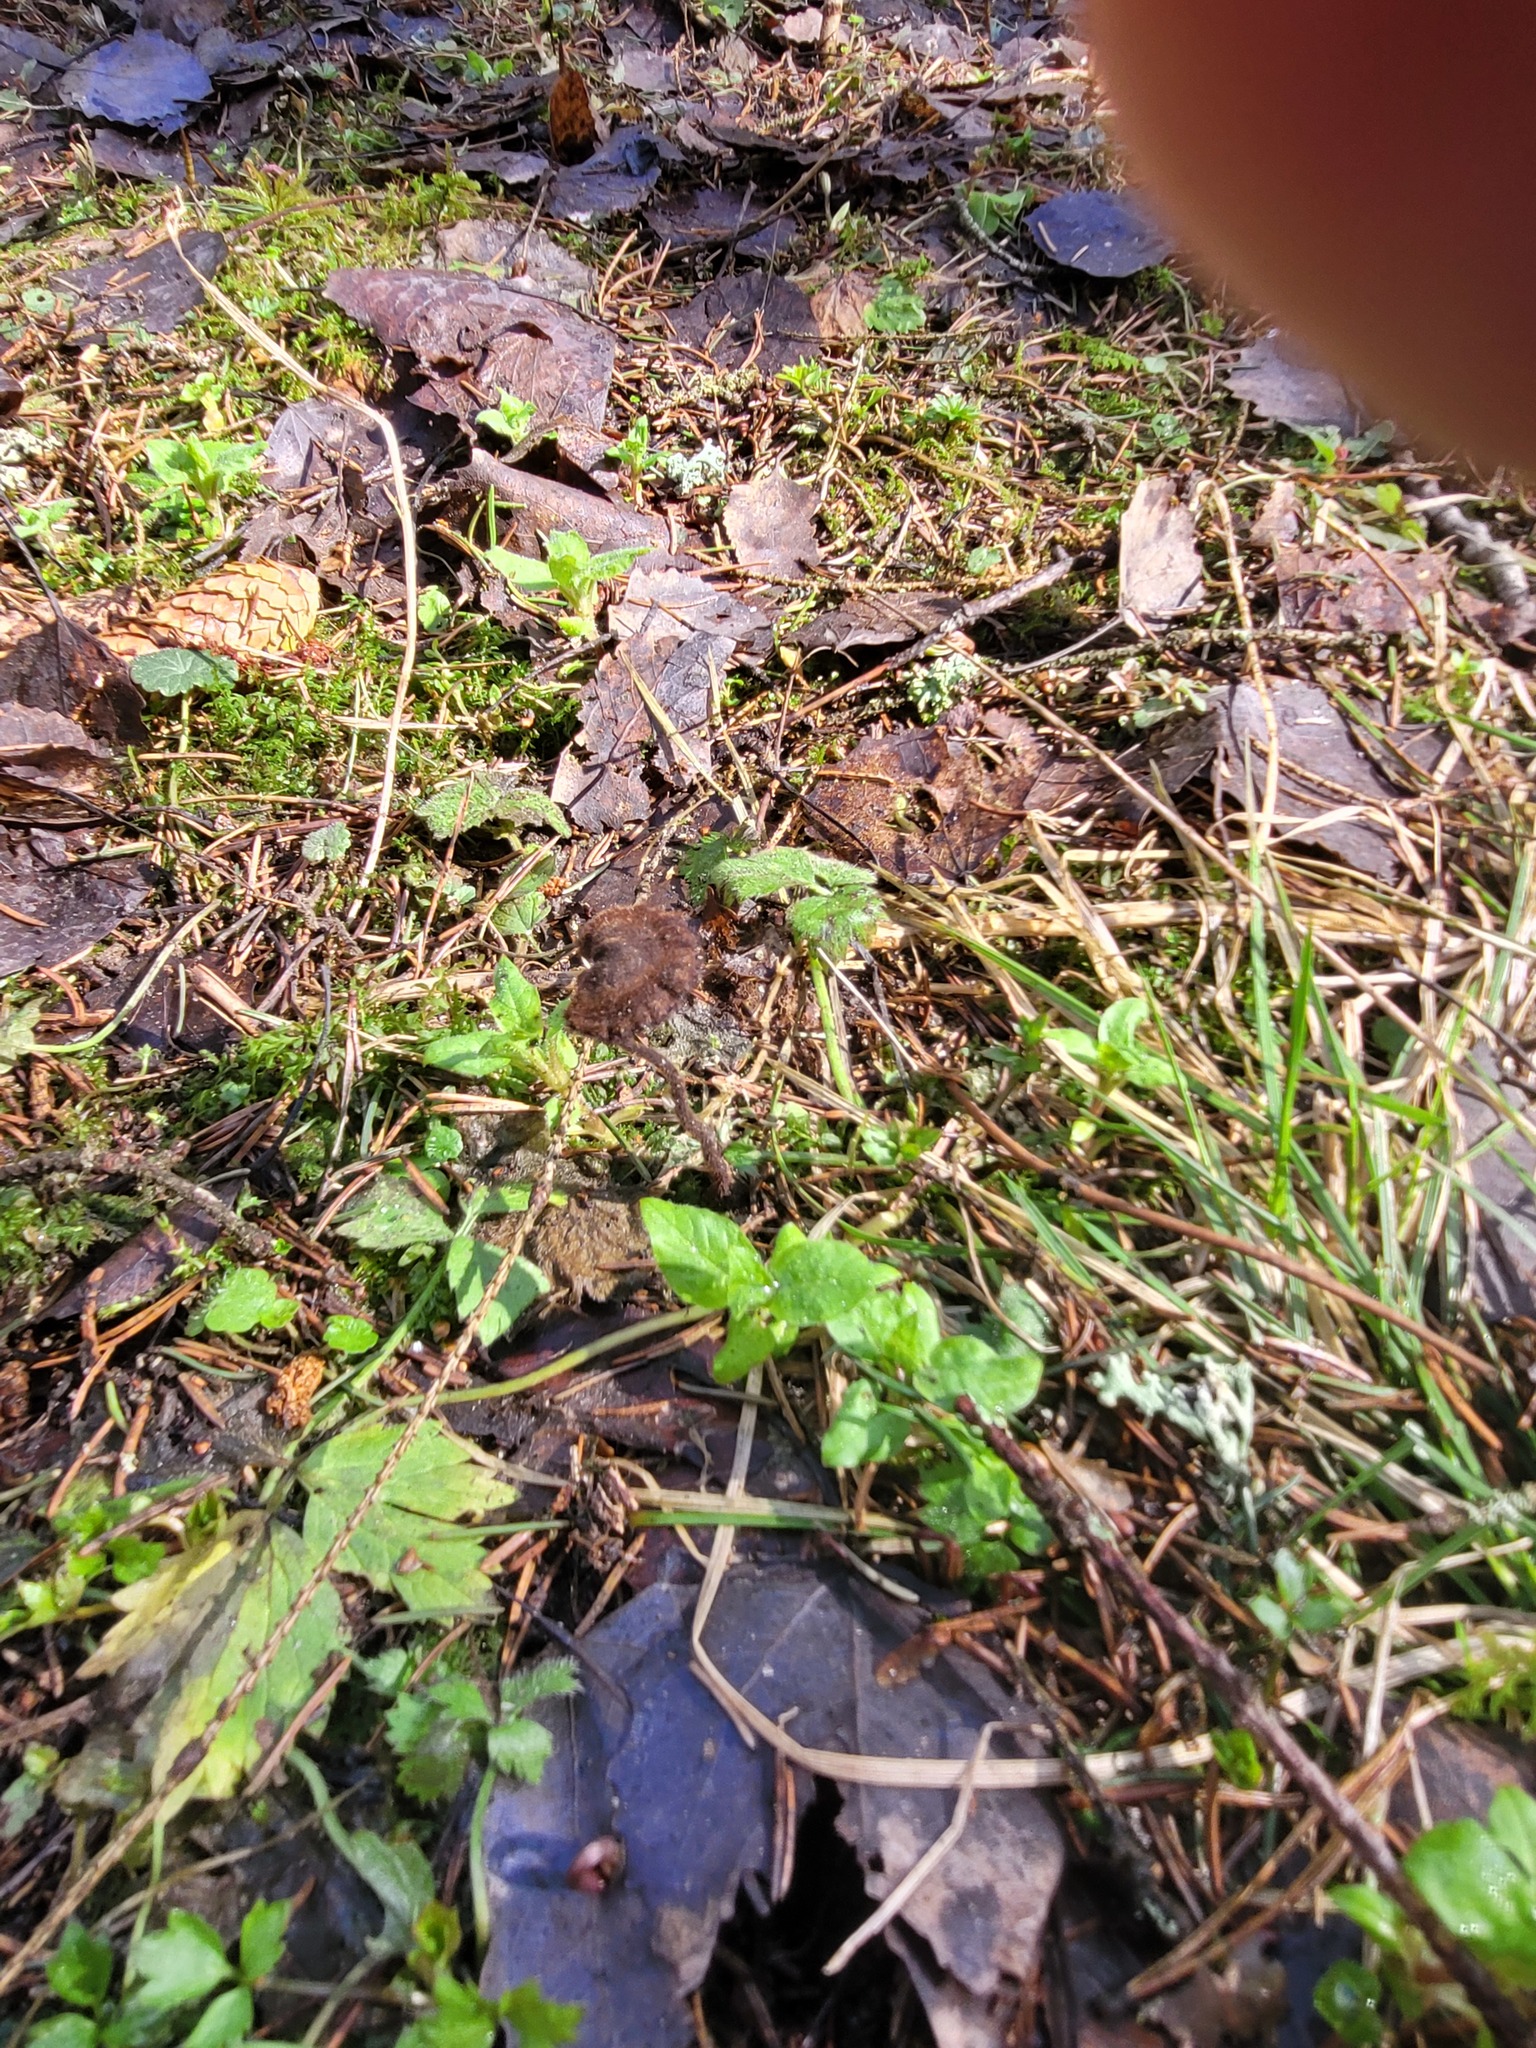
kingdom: Fungi
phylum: Basidiomycota
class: Agaricomycetes
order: Russulales
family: Auriscalpiaceae
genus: Auriscalpium
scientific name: Auriscalpium vulgare
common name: Earpick fungus
